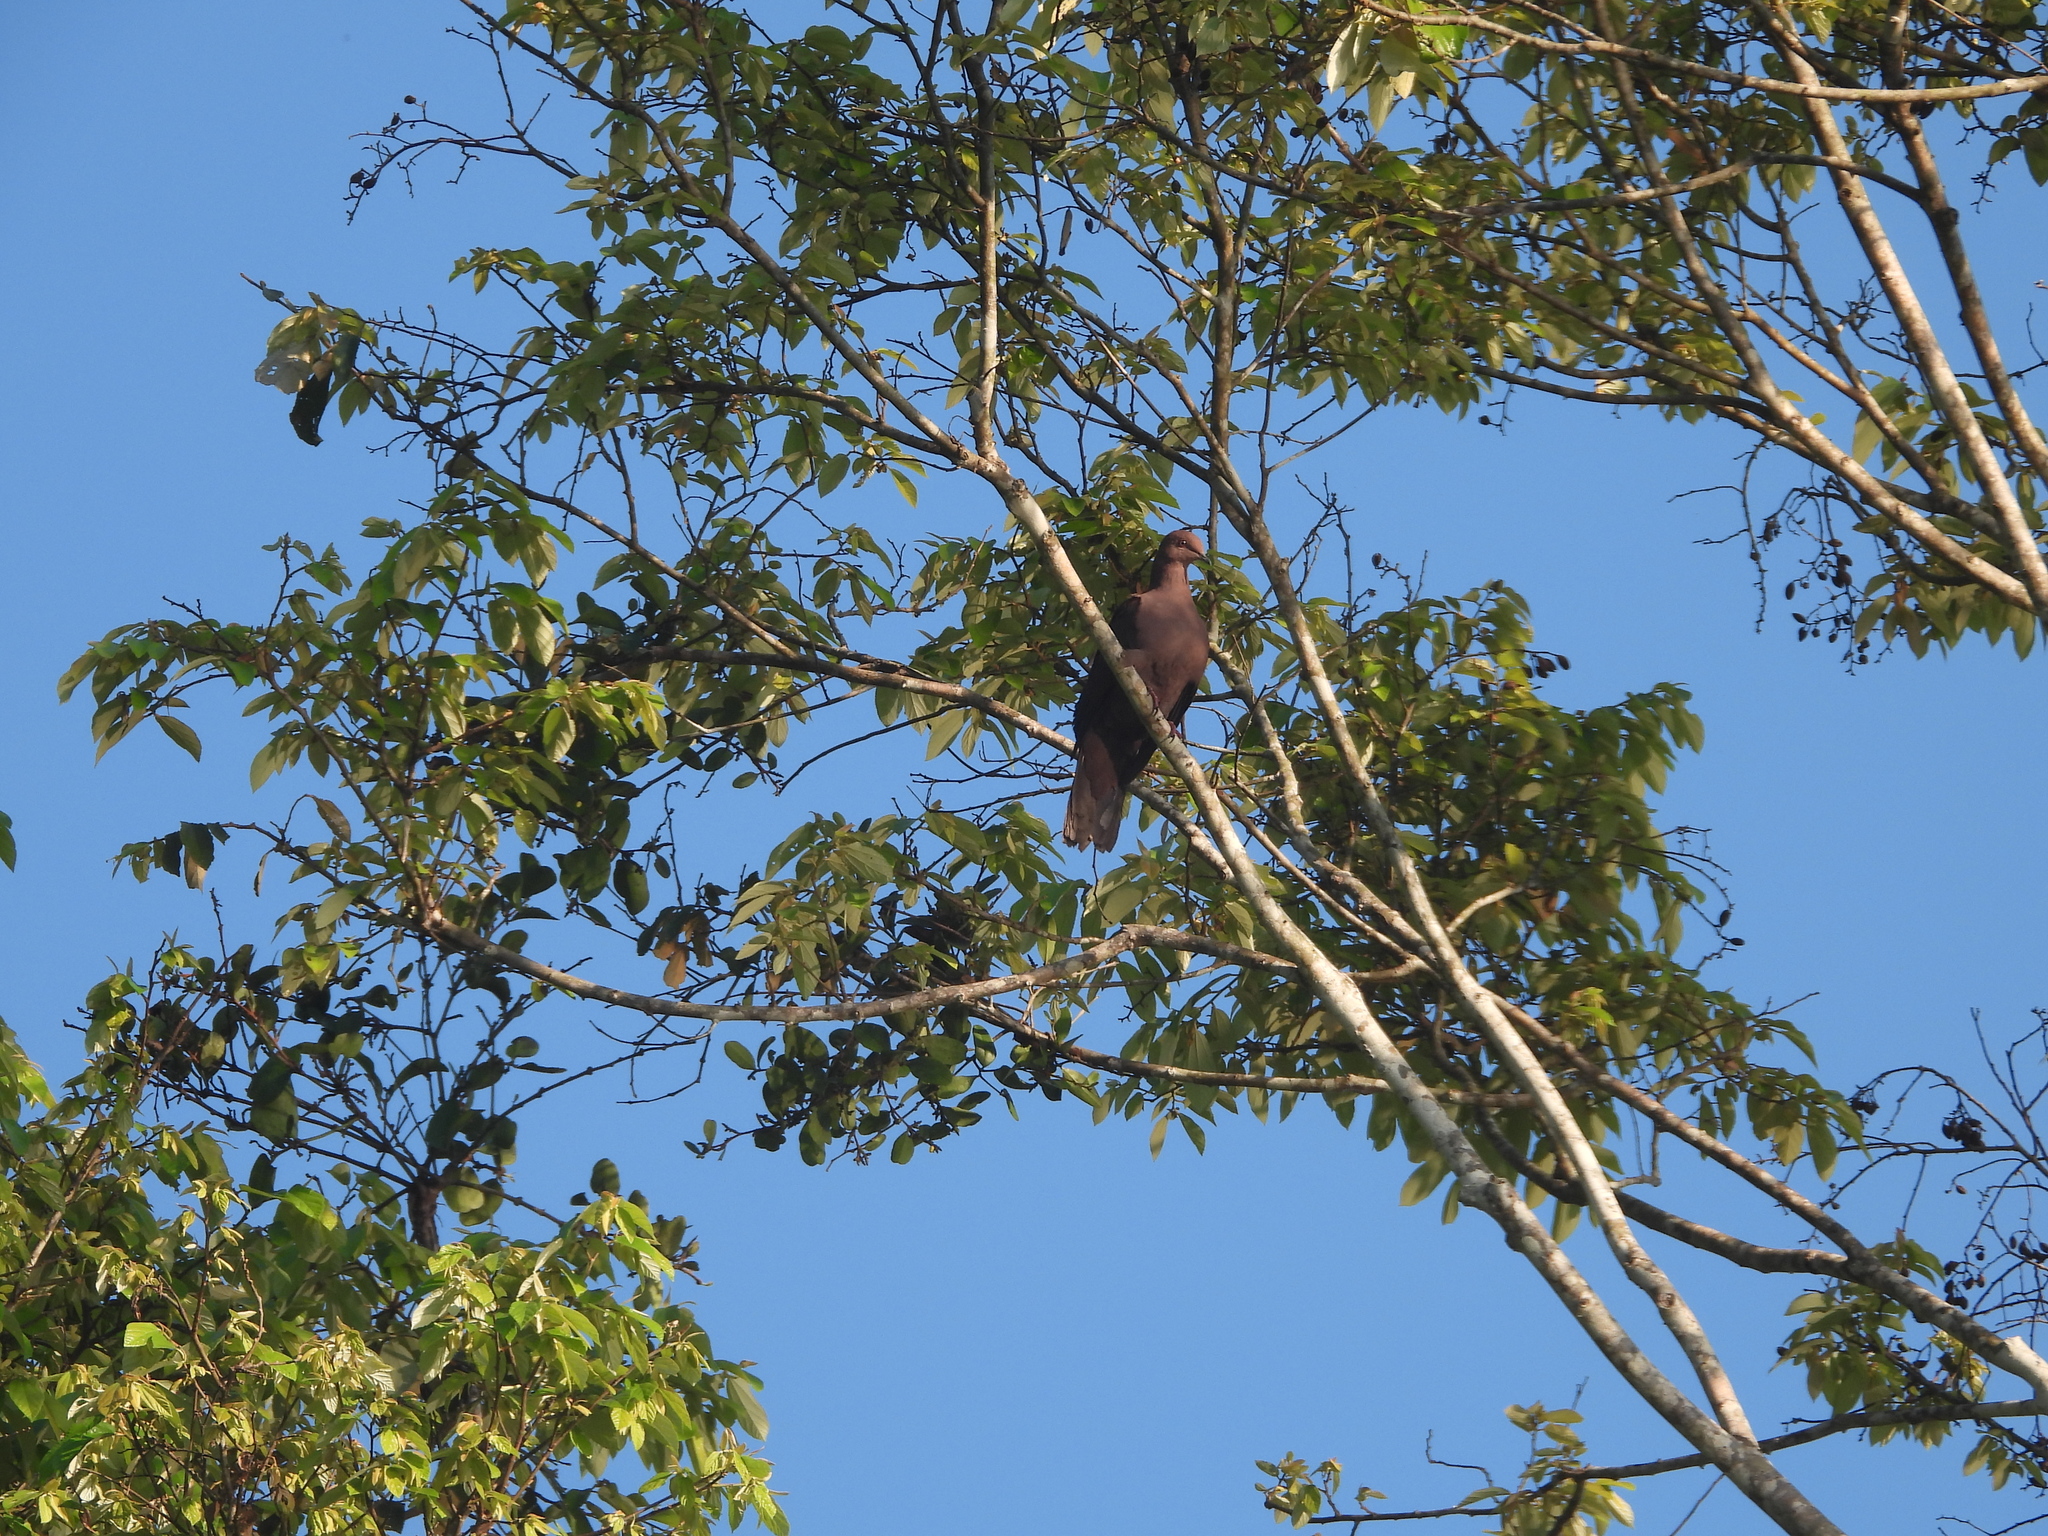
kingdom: Animalia
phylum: Chordata
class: Aves
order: Columbiformes
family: Columbidae
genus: Patagioenas
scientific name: Patagioenas subvinacea
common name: Ruddy pigeon
